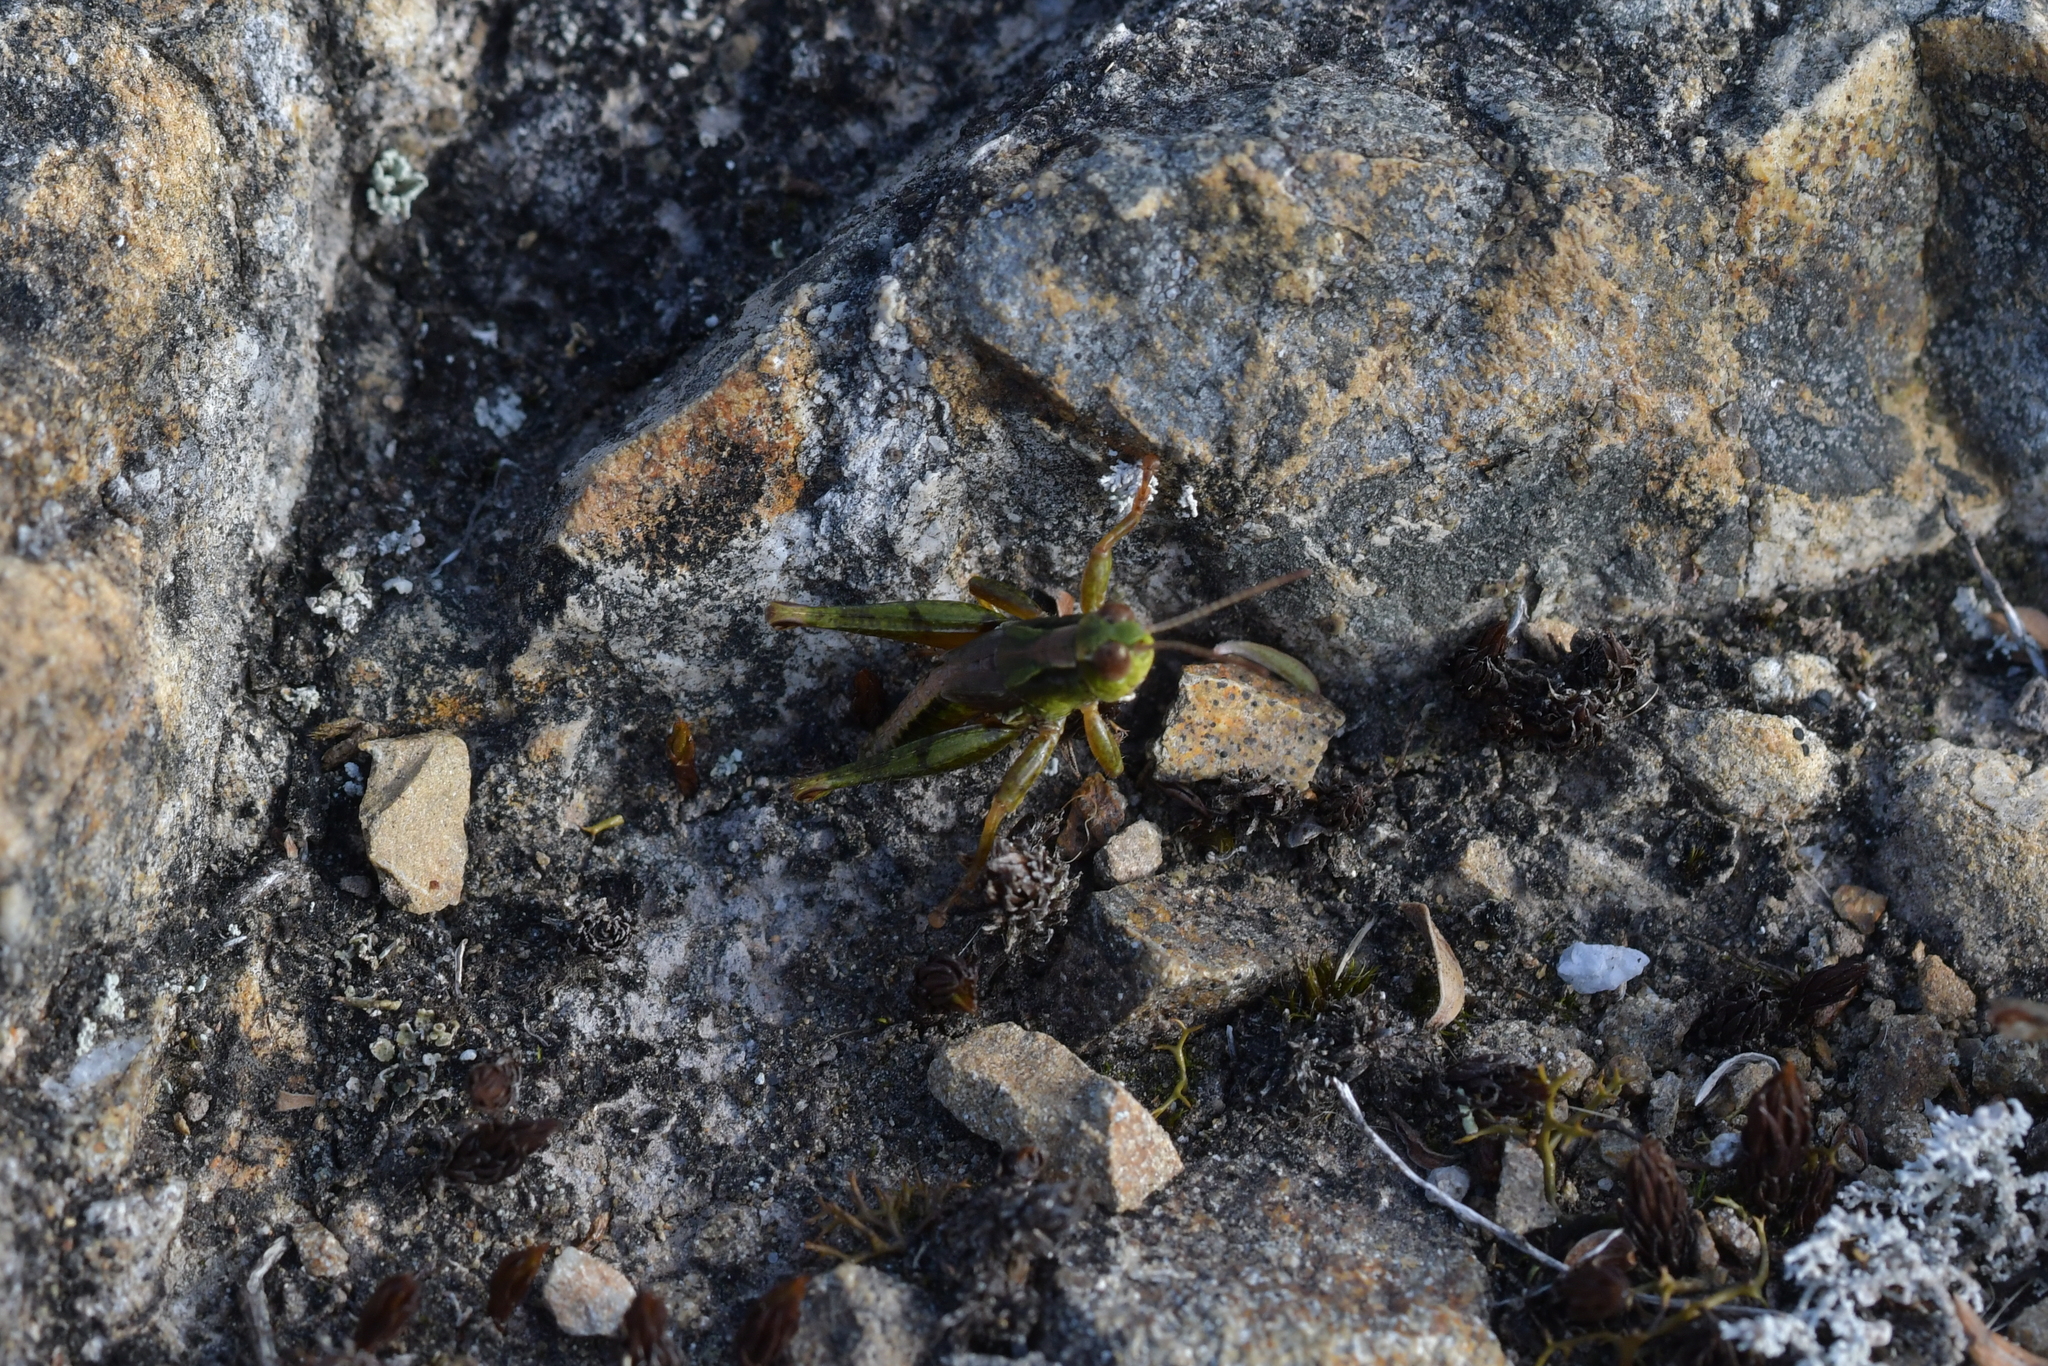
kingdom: Animalia
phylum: Arthropoda
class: Insecta
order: Orthoptera
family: Acrididae
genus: Phaulacridium
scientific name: Phaulacridium marginale
